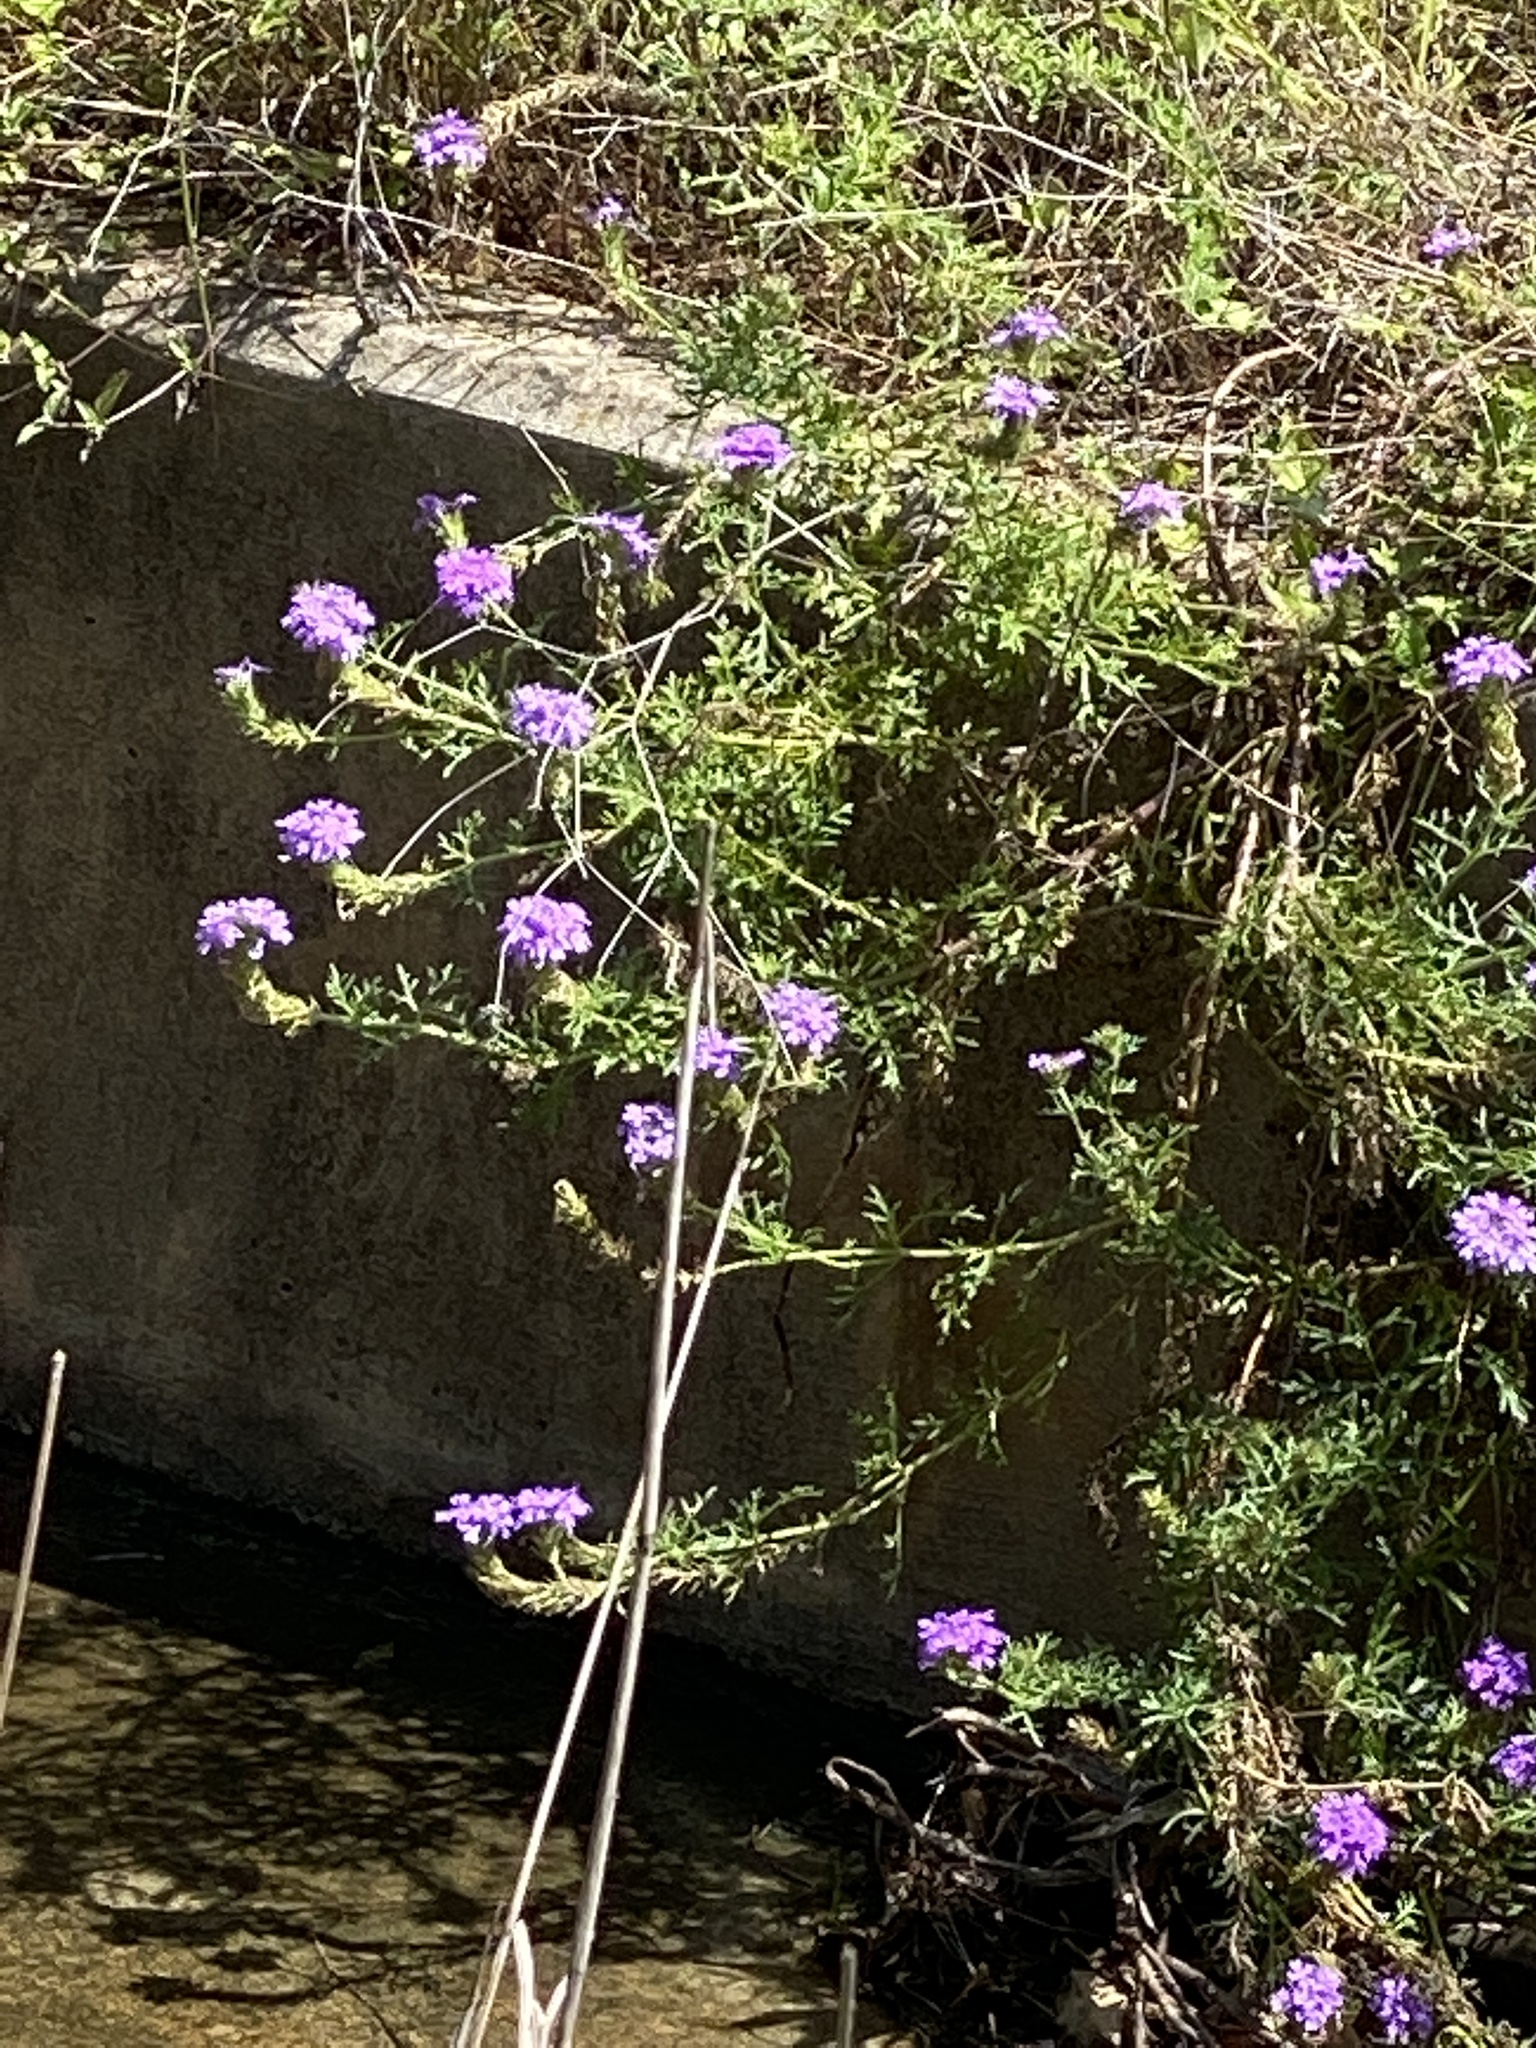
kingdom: Plantae
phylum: Tracheophyta
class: Magnoliopsida
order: Lamiales
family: Verbenaceae
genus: Verbena
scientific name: Verbena
